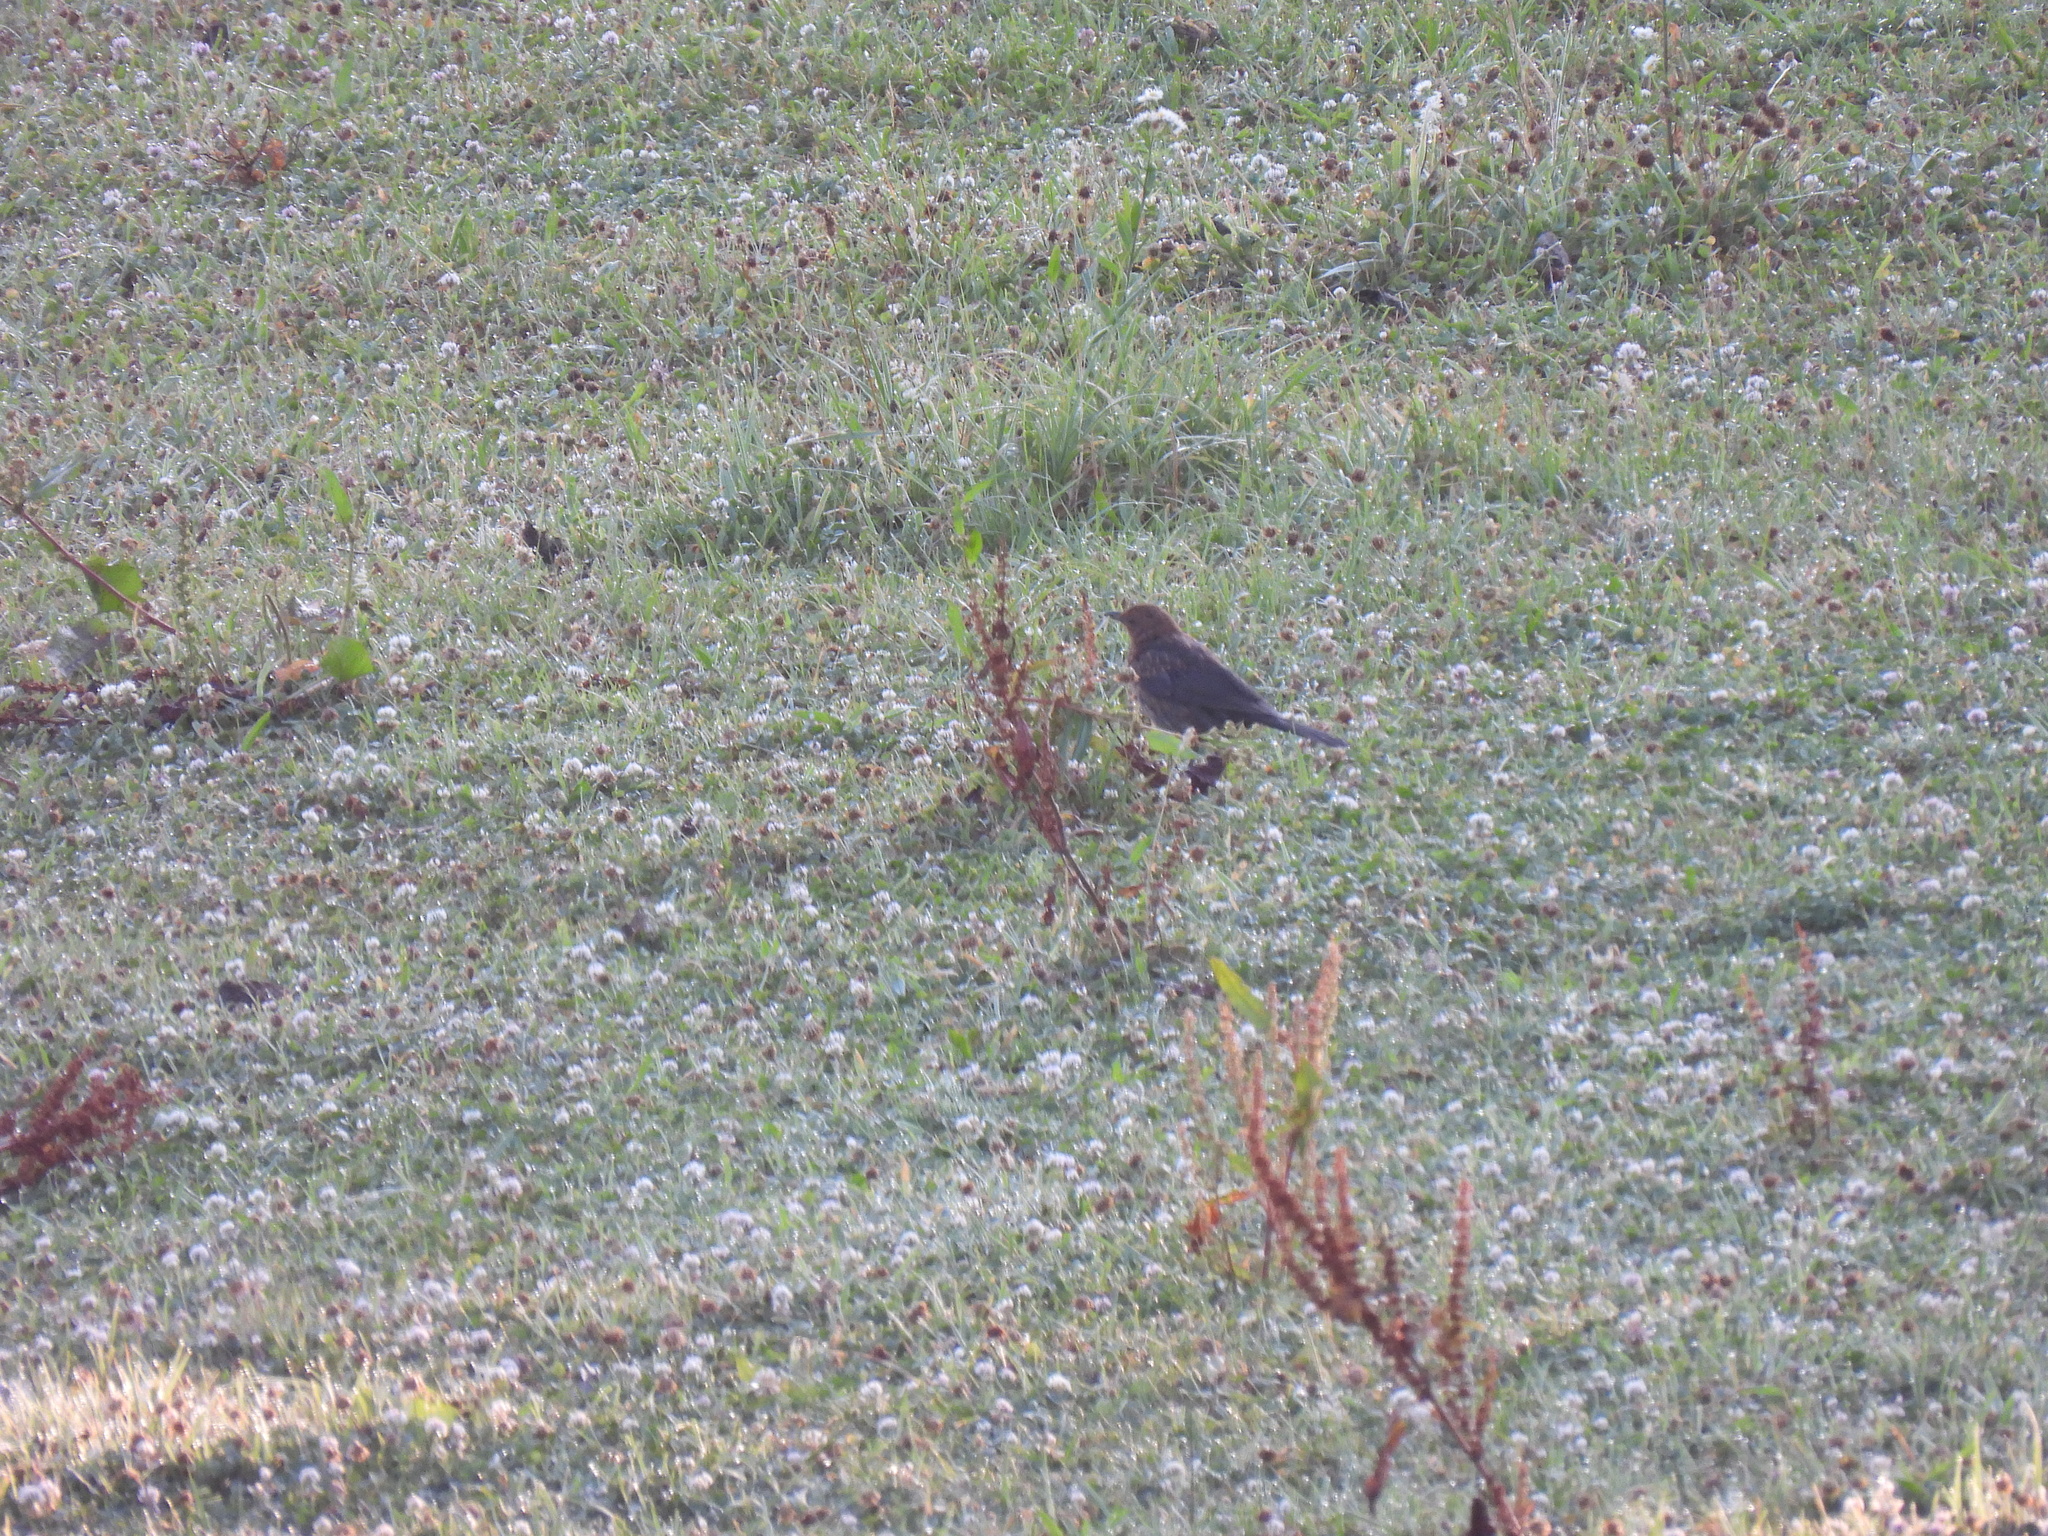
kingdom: Animalia
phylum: Chordata
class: Aves
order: Passeriformes
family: Turdidae
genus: Turdus
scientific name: Turdus merula
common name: Common blackbird
